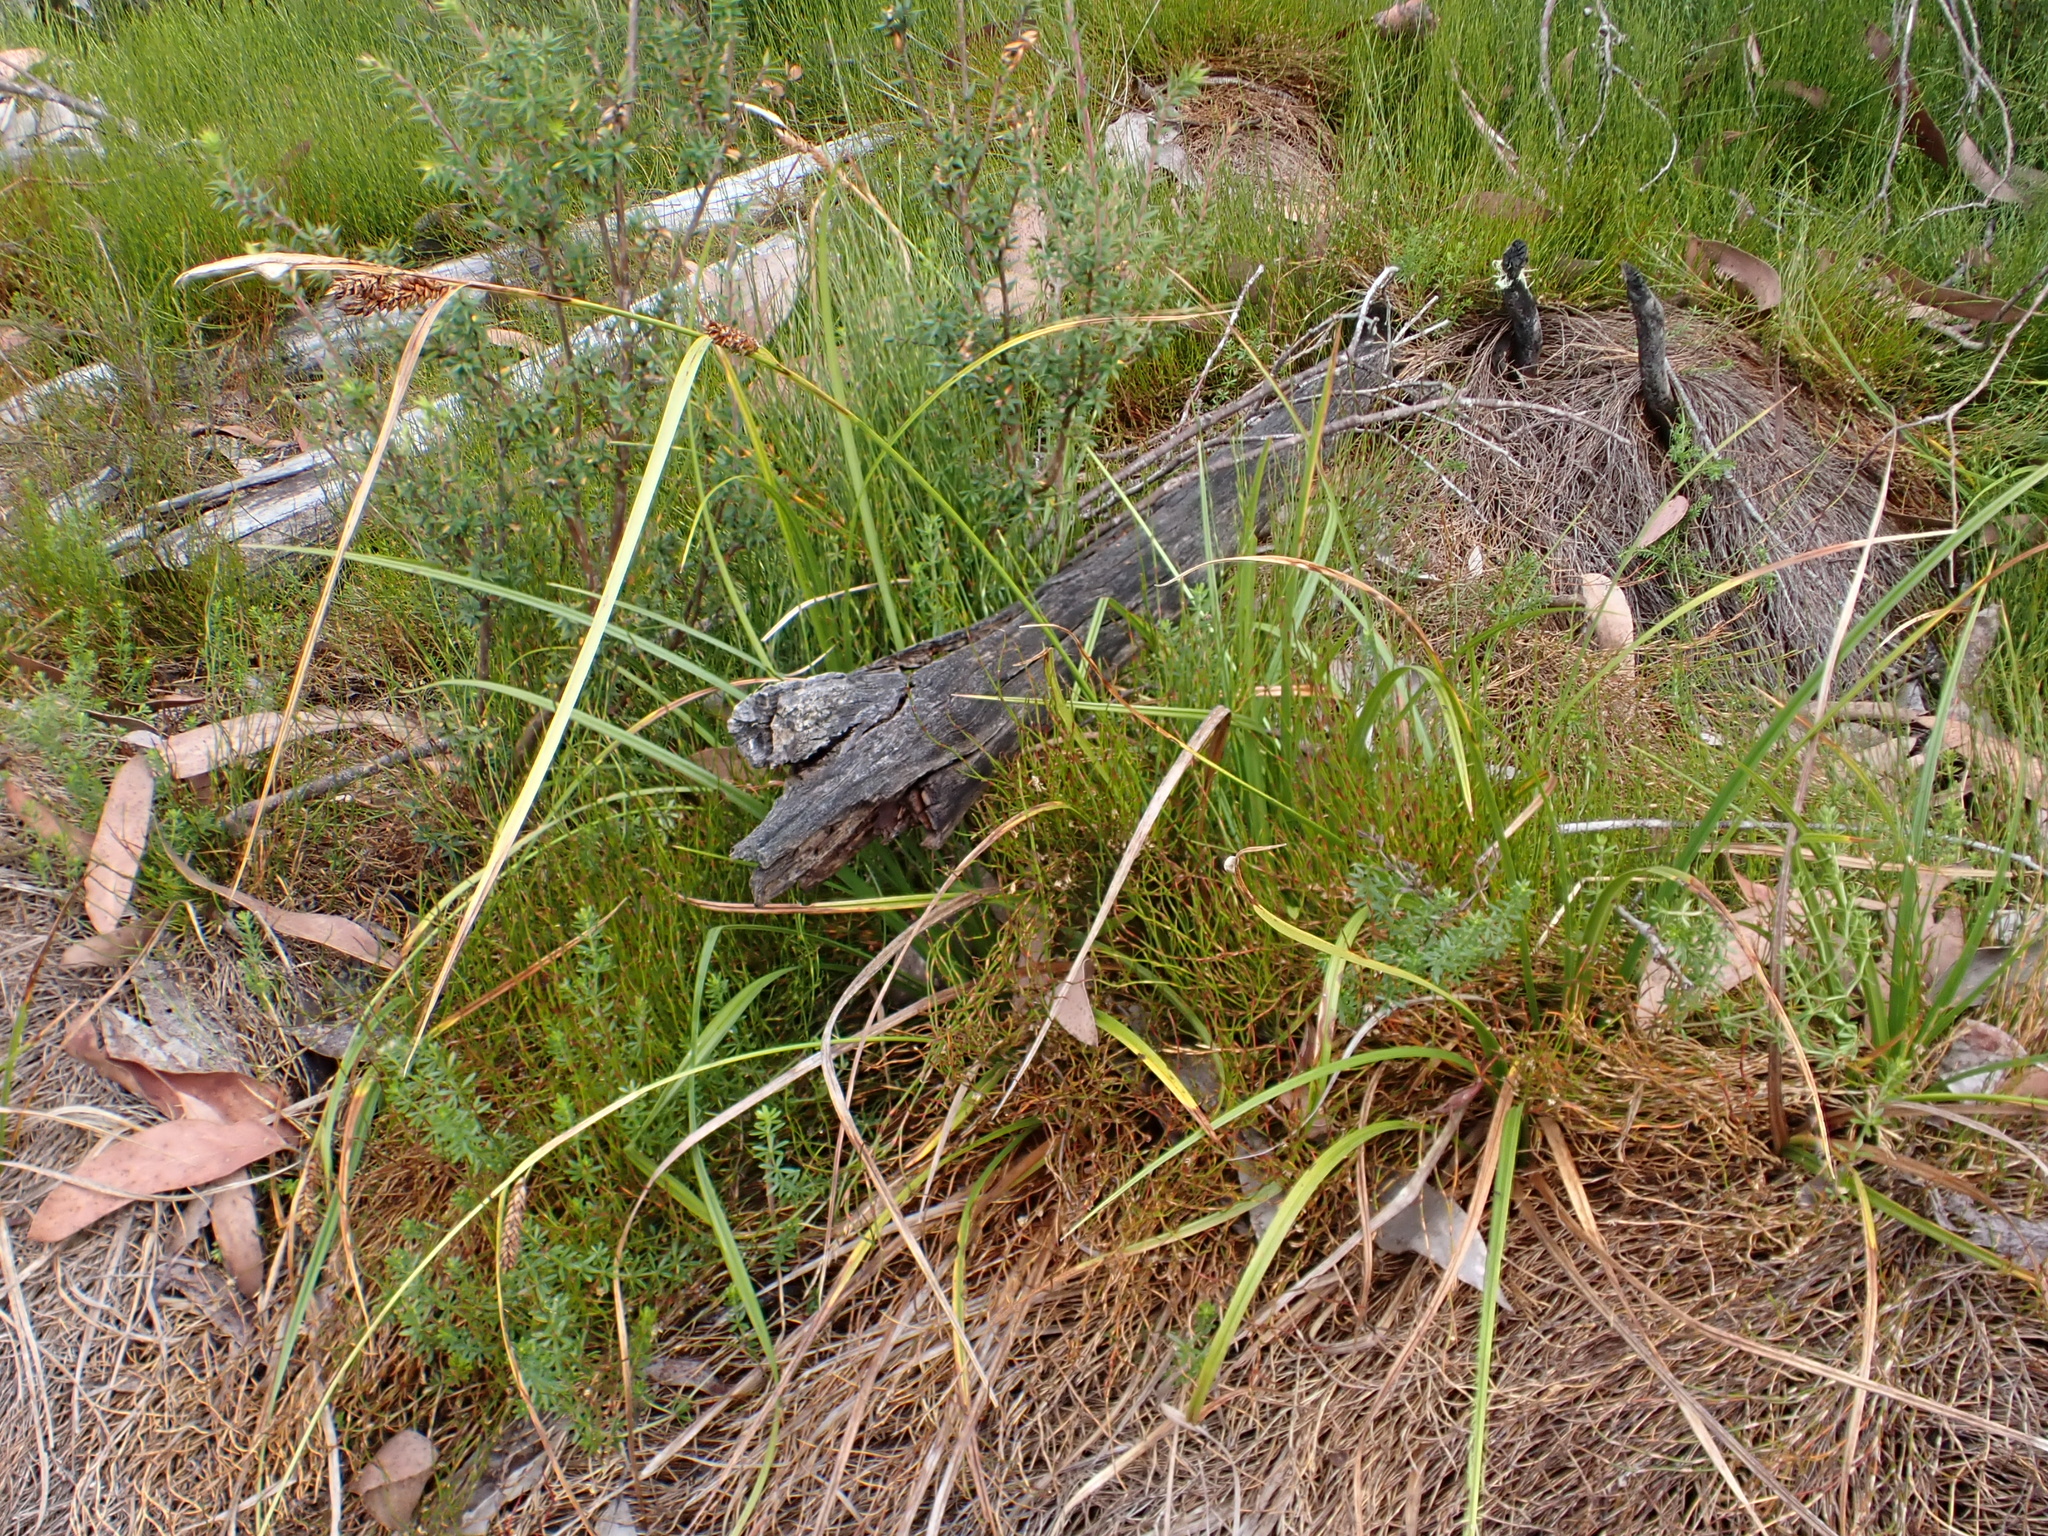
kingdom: Plantae
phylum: Tracheophyta
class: Liliopsida
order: Poales
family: Cyperaceae
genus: Carex
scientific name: Carex blakei
